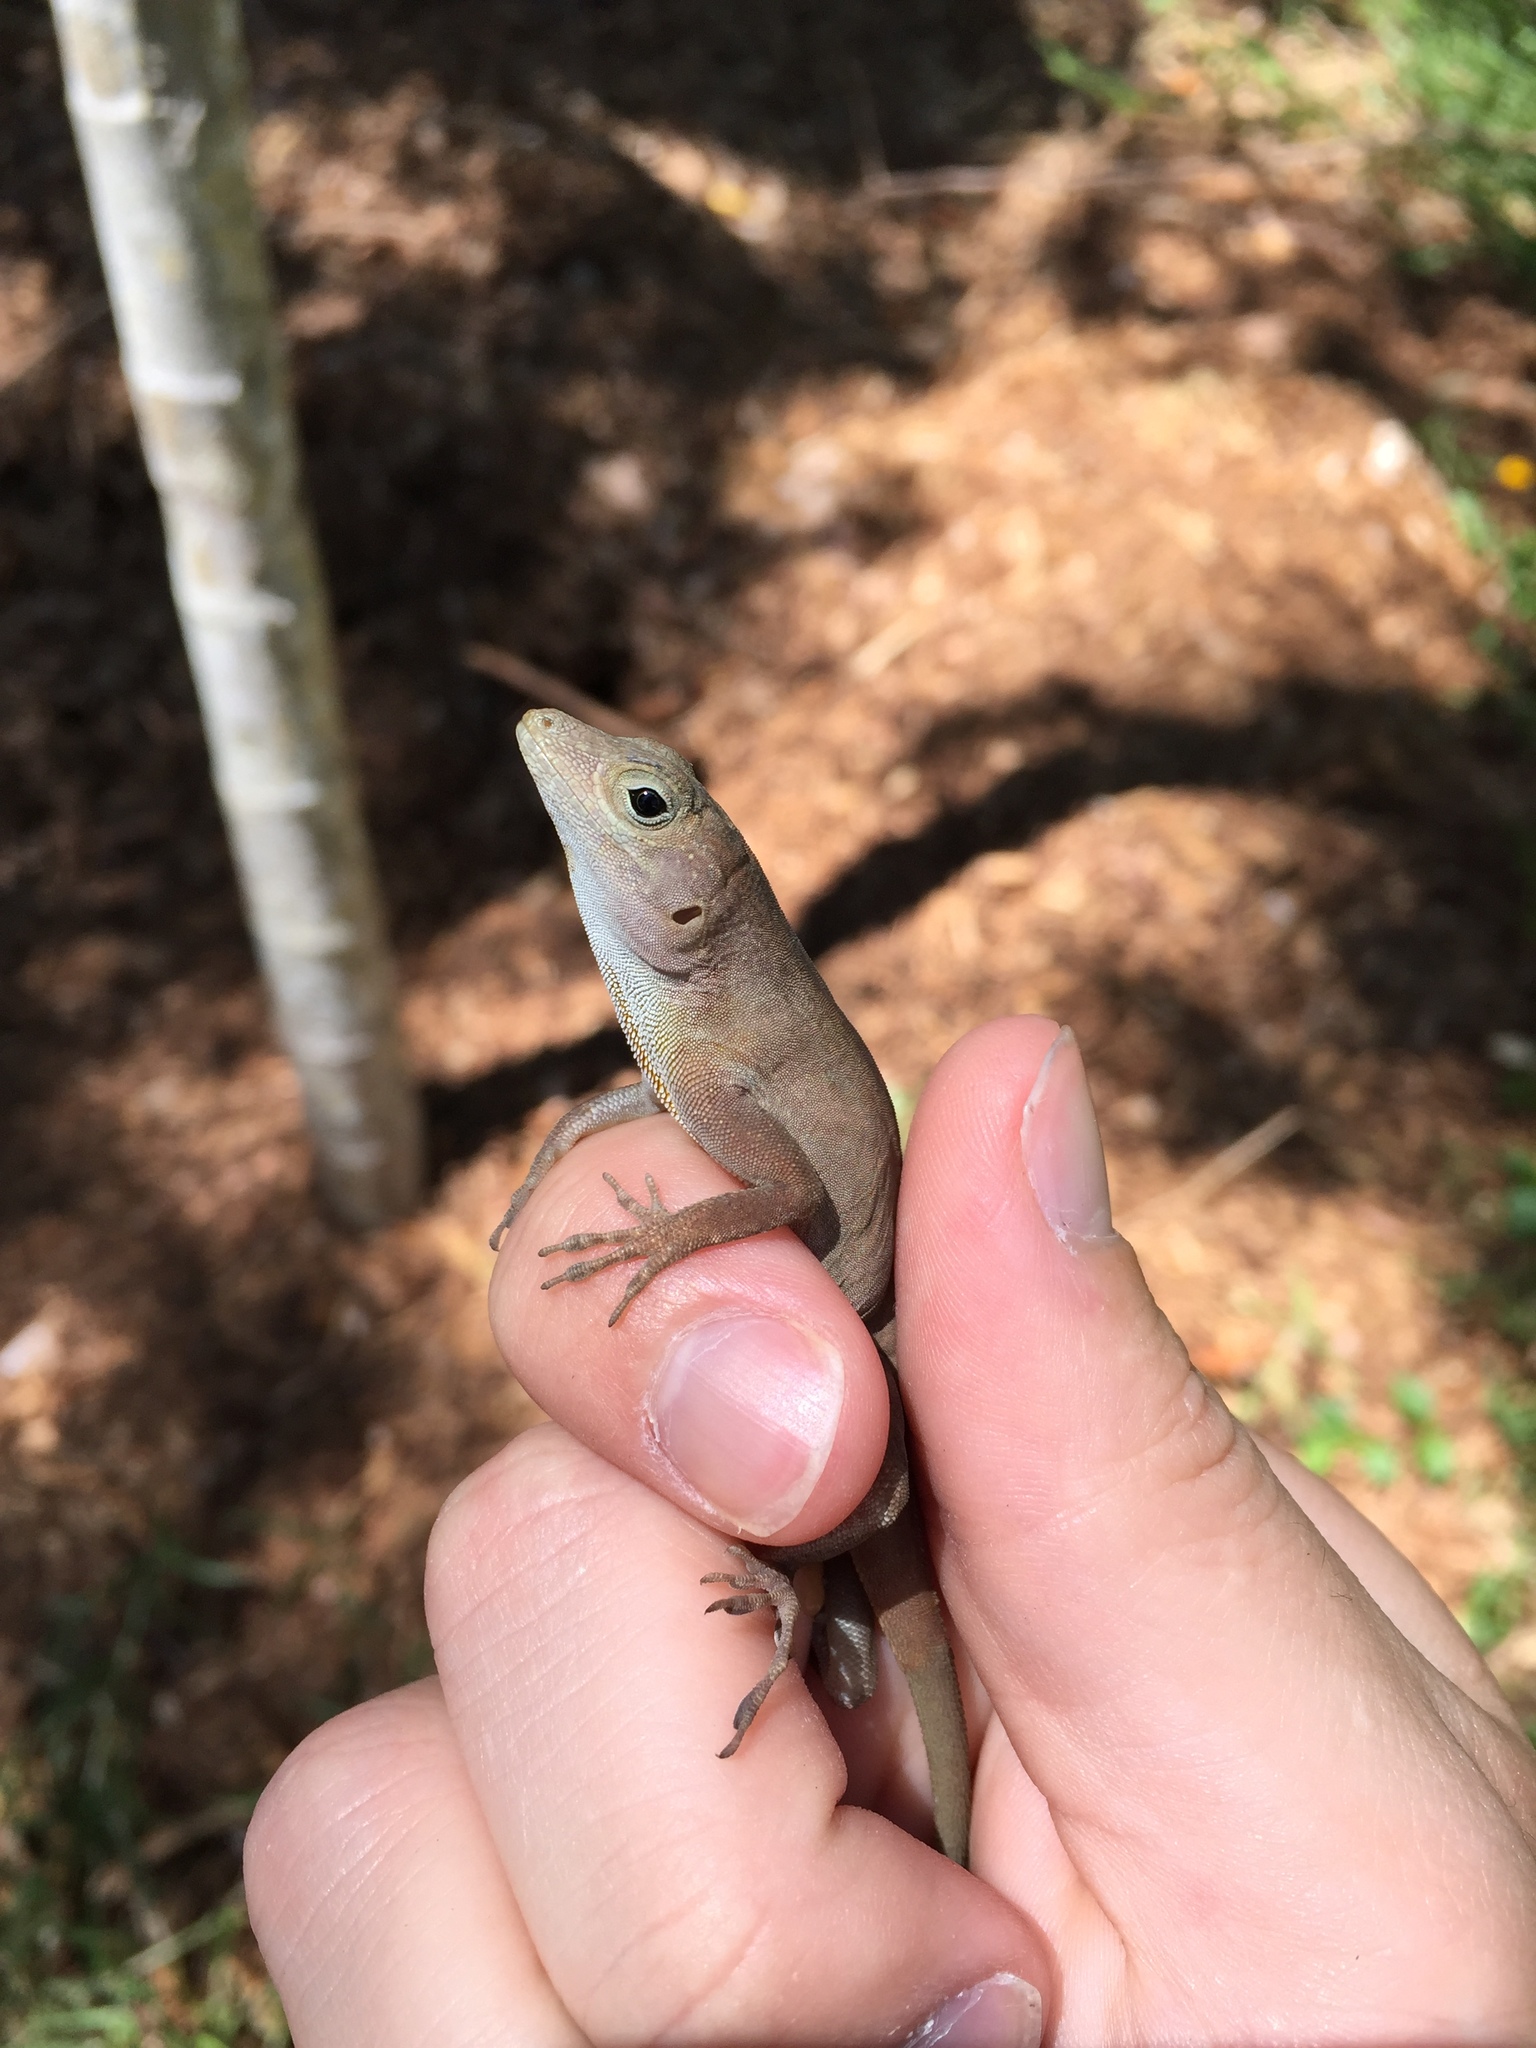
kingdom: Animalia
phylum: Chordata
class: Squamata
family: Dactyloidae
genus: Anolis
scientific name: Anolis cristatellus
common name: Crested anole
